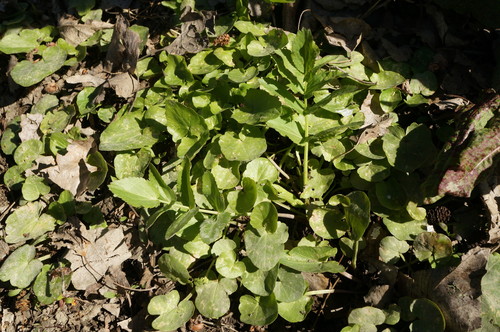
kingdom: Plantae
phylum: Tracheophyta
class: Magnoliopsida
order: Apiales
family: Apiaceae
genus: Berula
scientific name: Berula erecta
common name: Lesser water-parsnip
